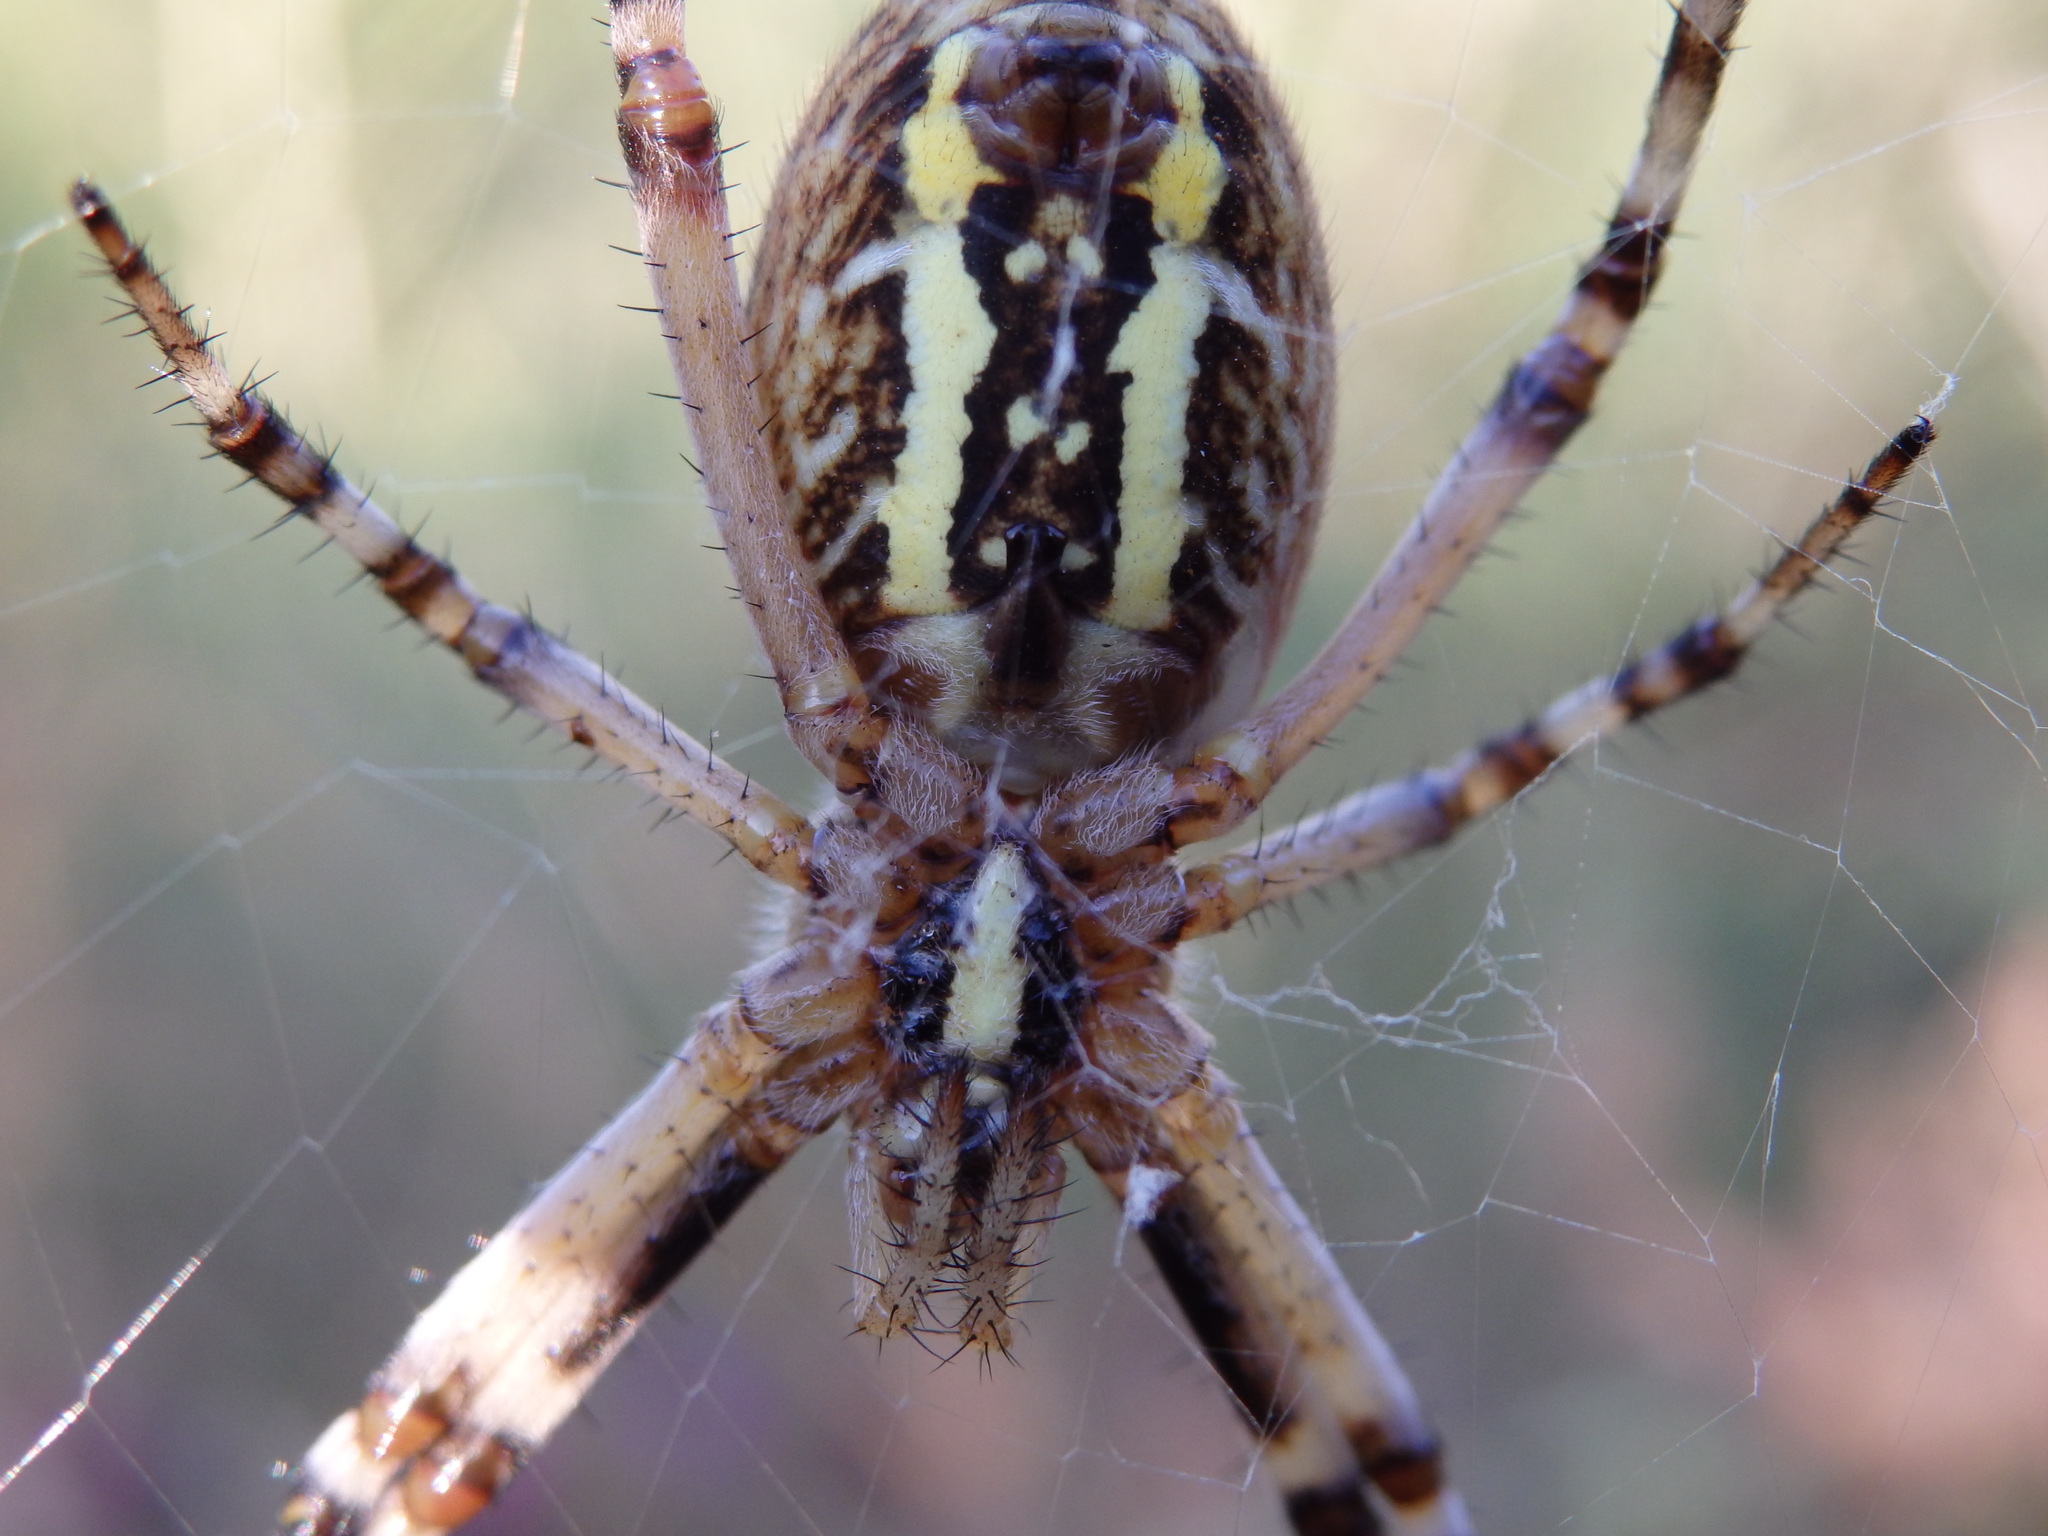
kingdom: Animalia
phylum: Arthropoda
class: Arachnida
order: Araneae
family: Araneidae
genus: Argiope
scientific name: Argiope bruennichi
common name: Wasp spider
